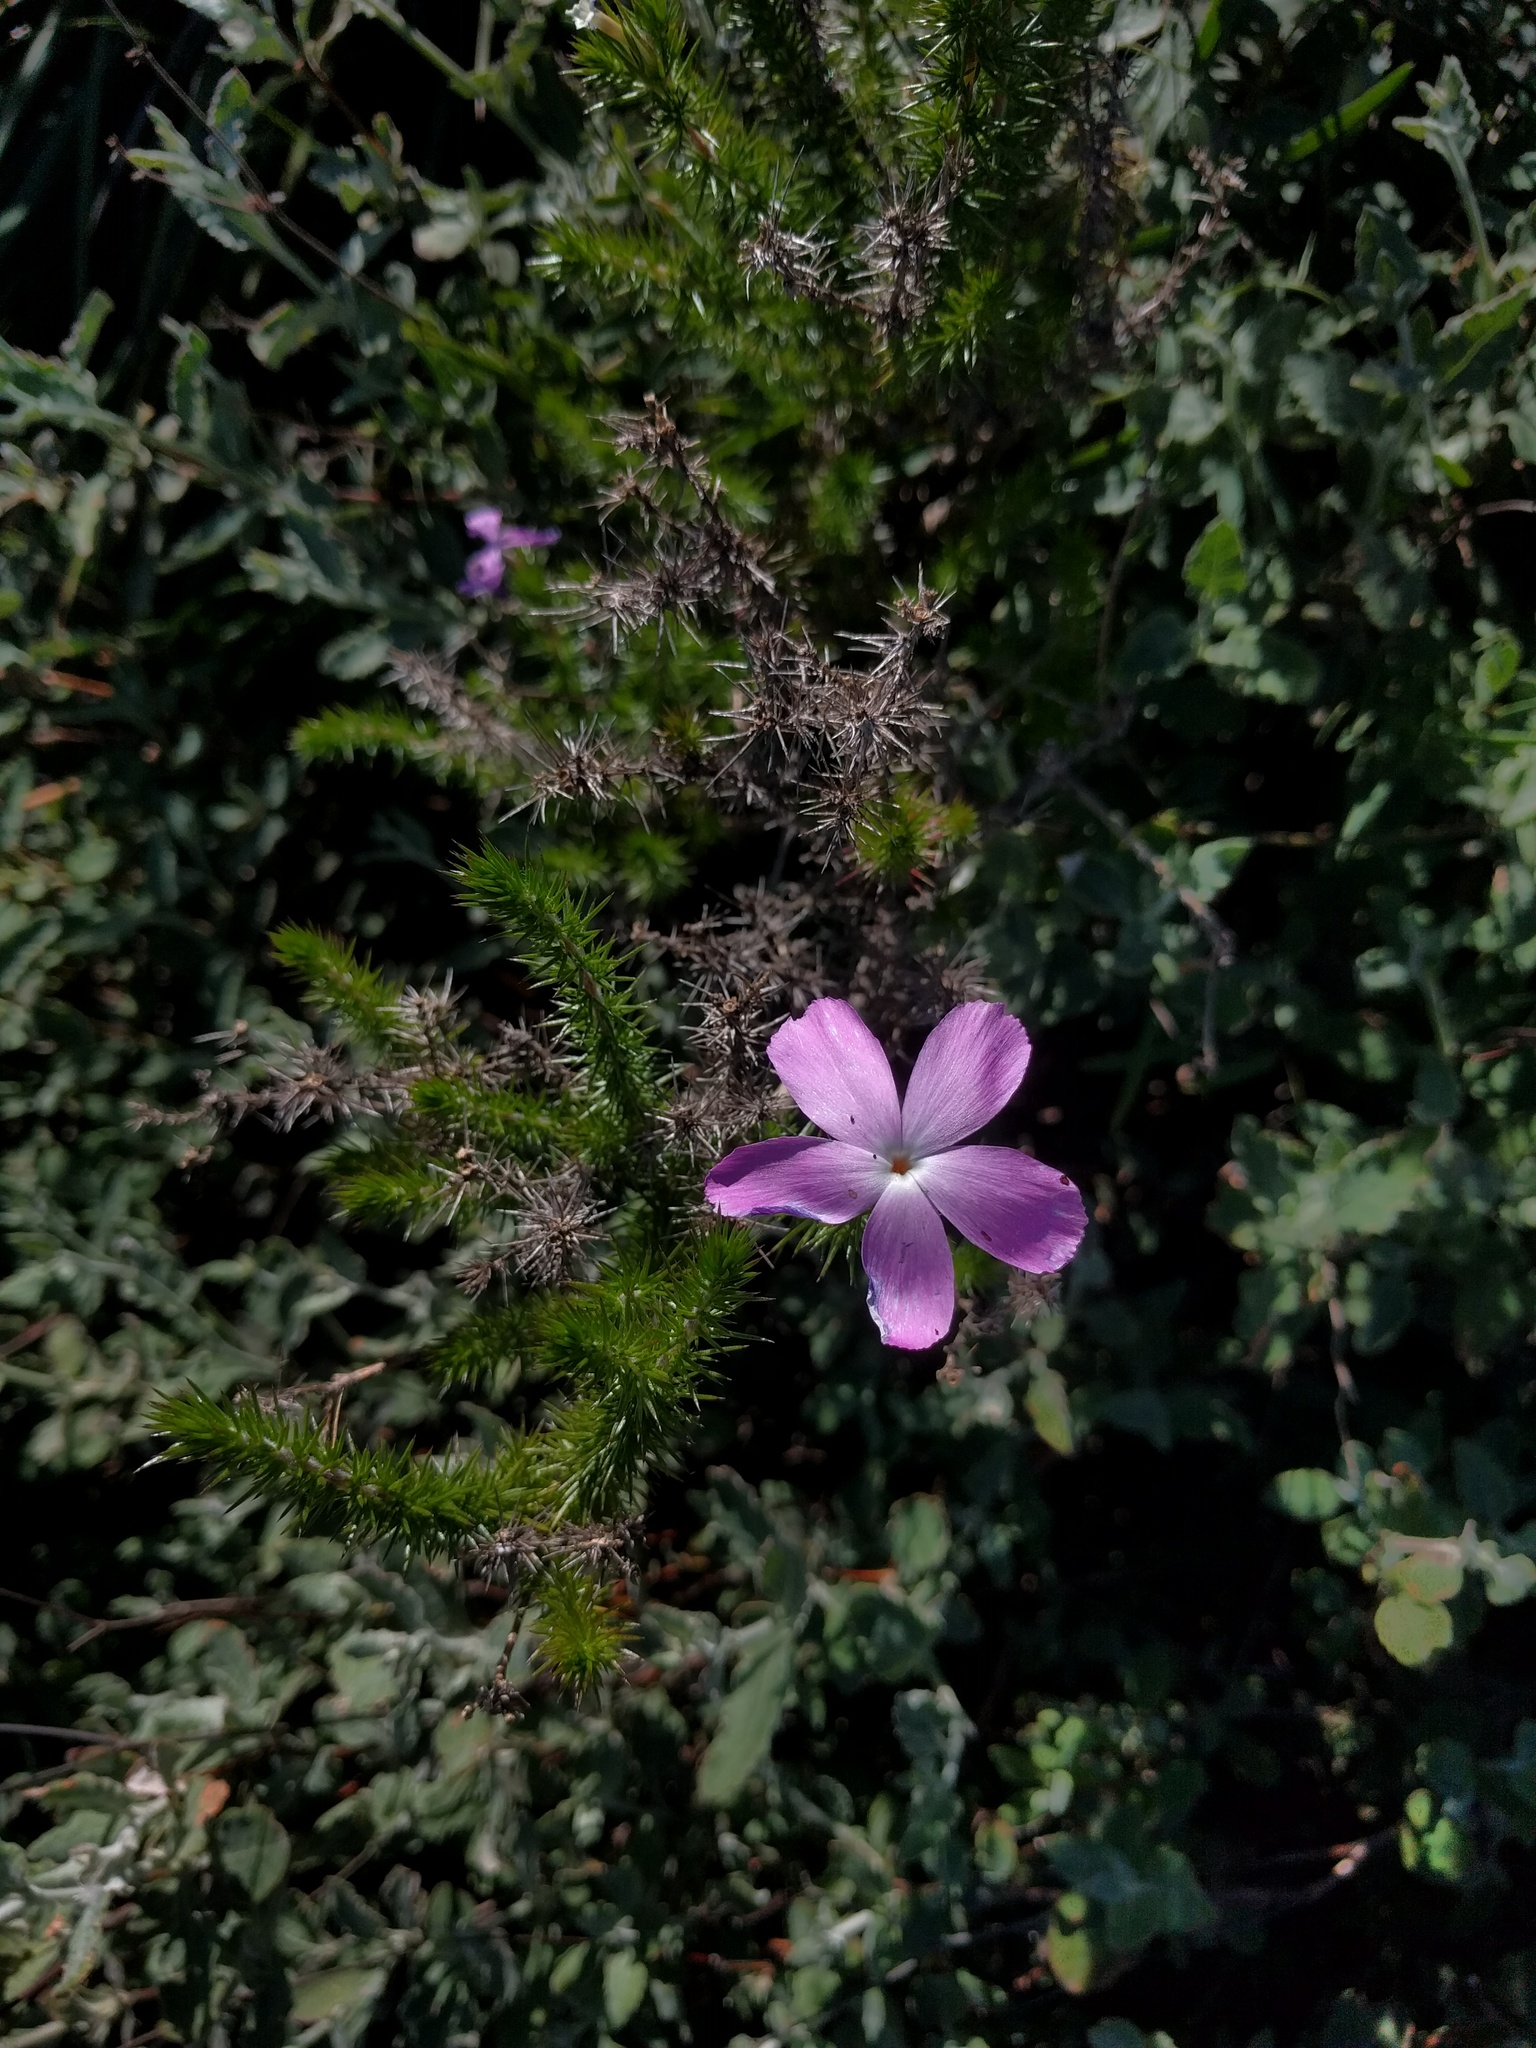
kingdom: Plantae
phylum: Tracheophyta
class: Magnoliopsida
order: Ericales
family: Polemoniaceae
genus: Linanthus
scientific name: Linanthus californicus
